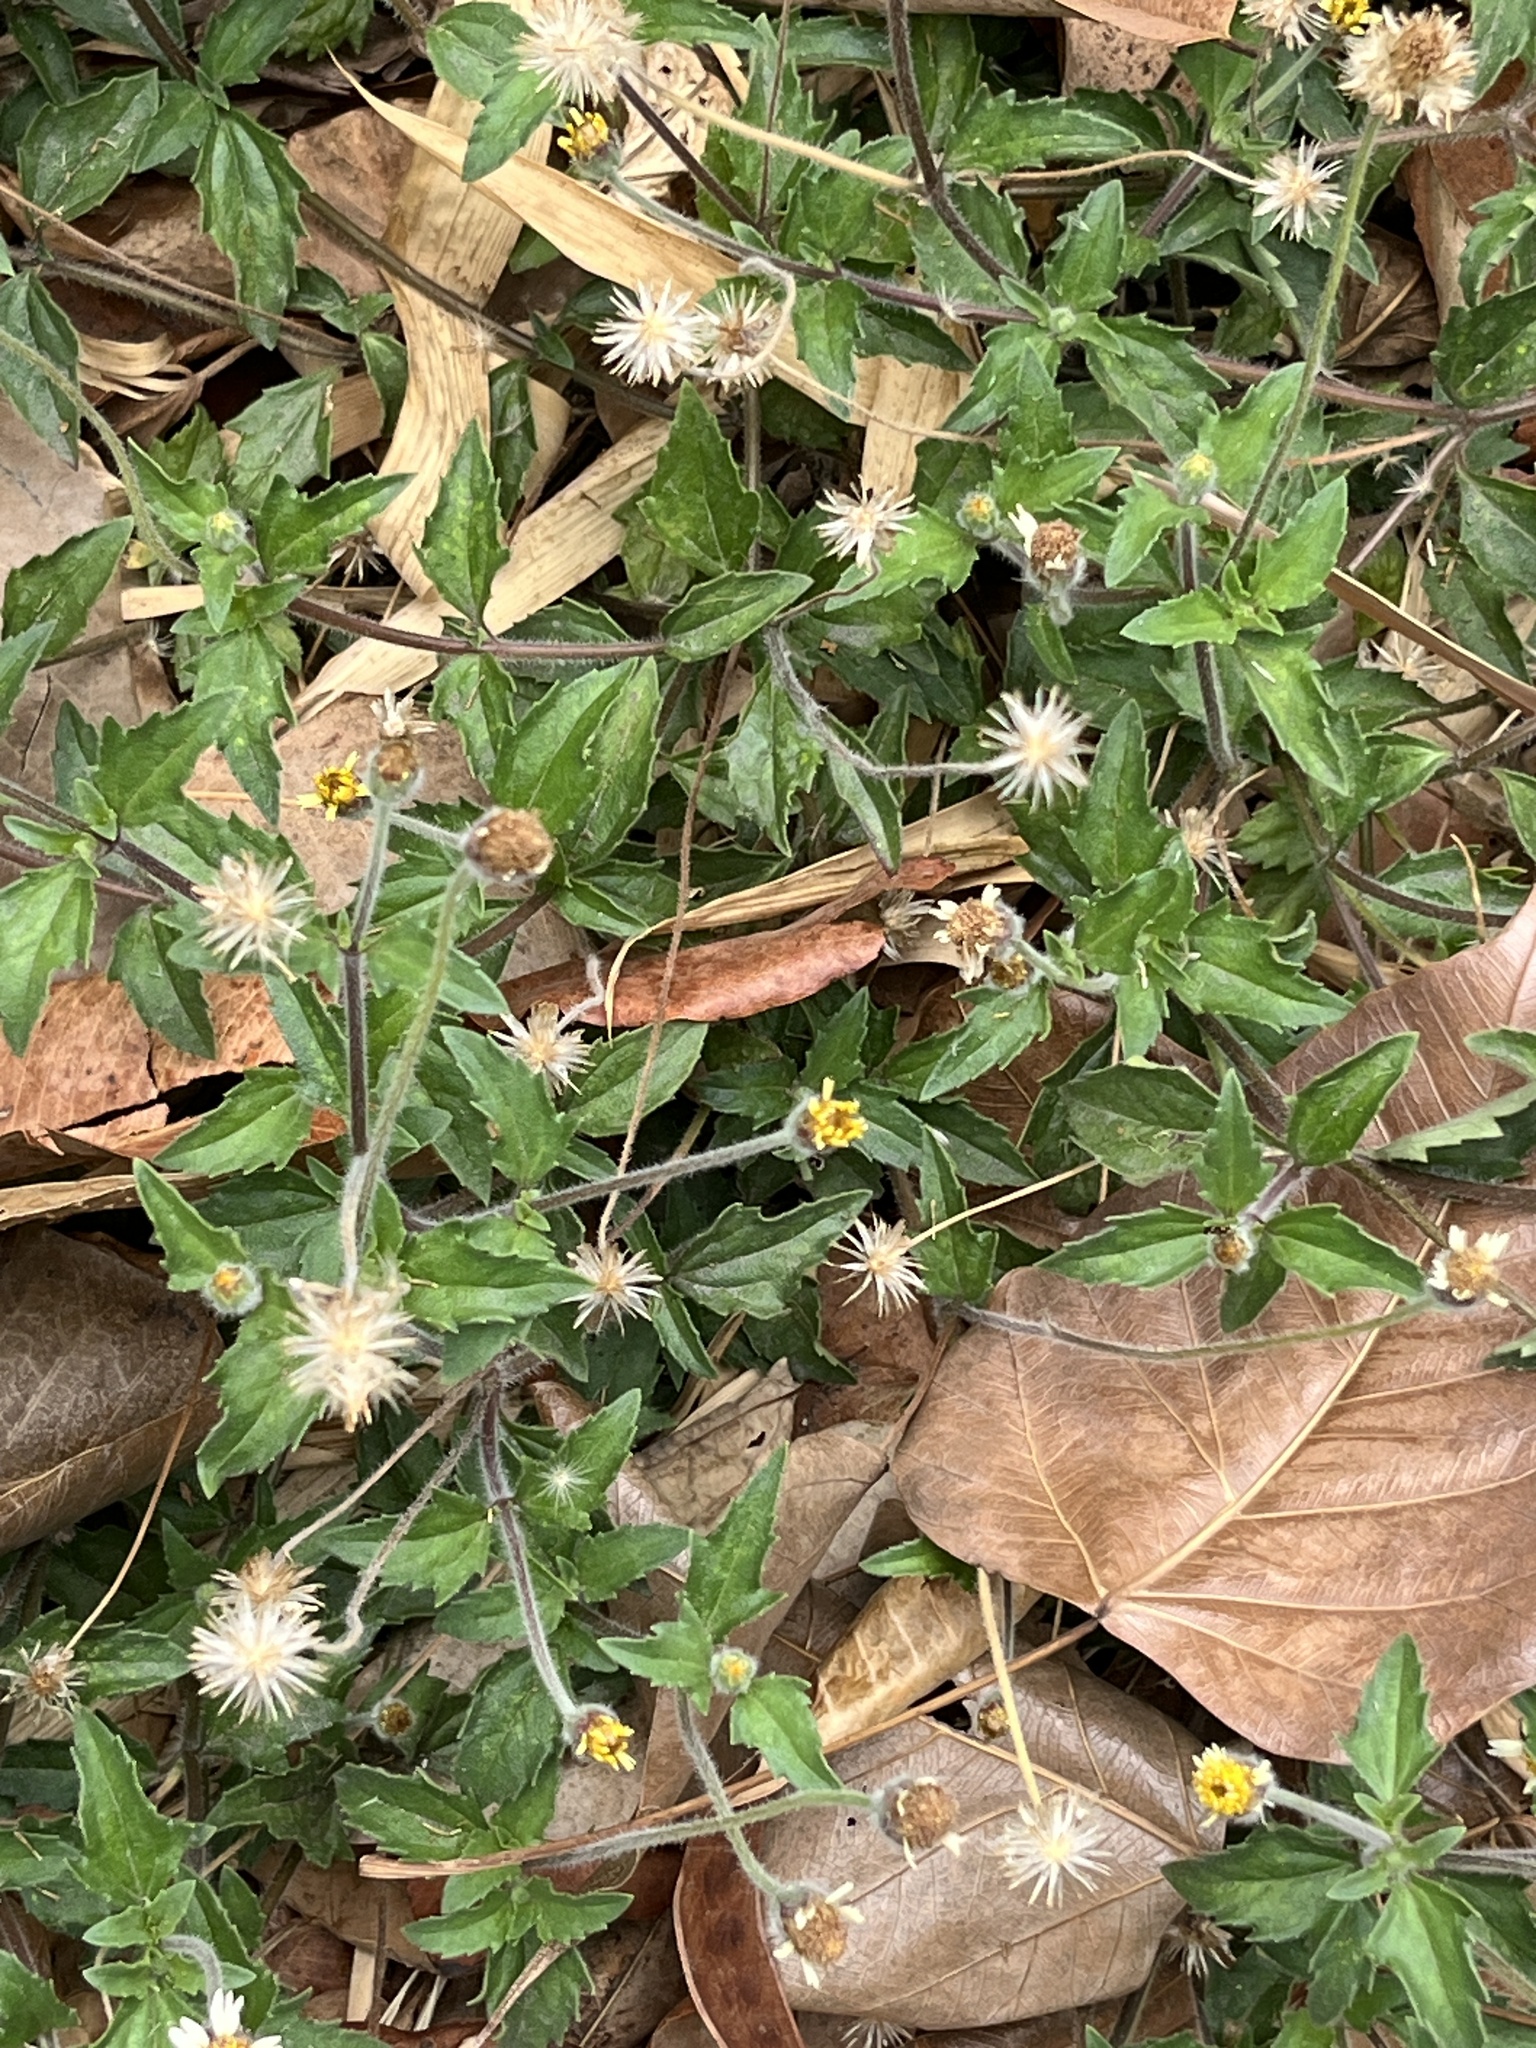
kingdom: Plantae
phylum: Tracheophyta
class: Magnoliopsida
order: Asterales
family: Asteraceae
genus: Tridax
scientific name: Tridax procumbens
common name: Coatbuttons
